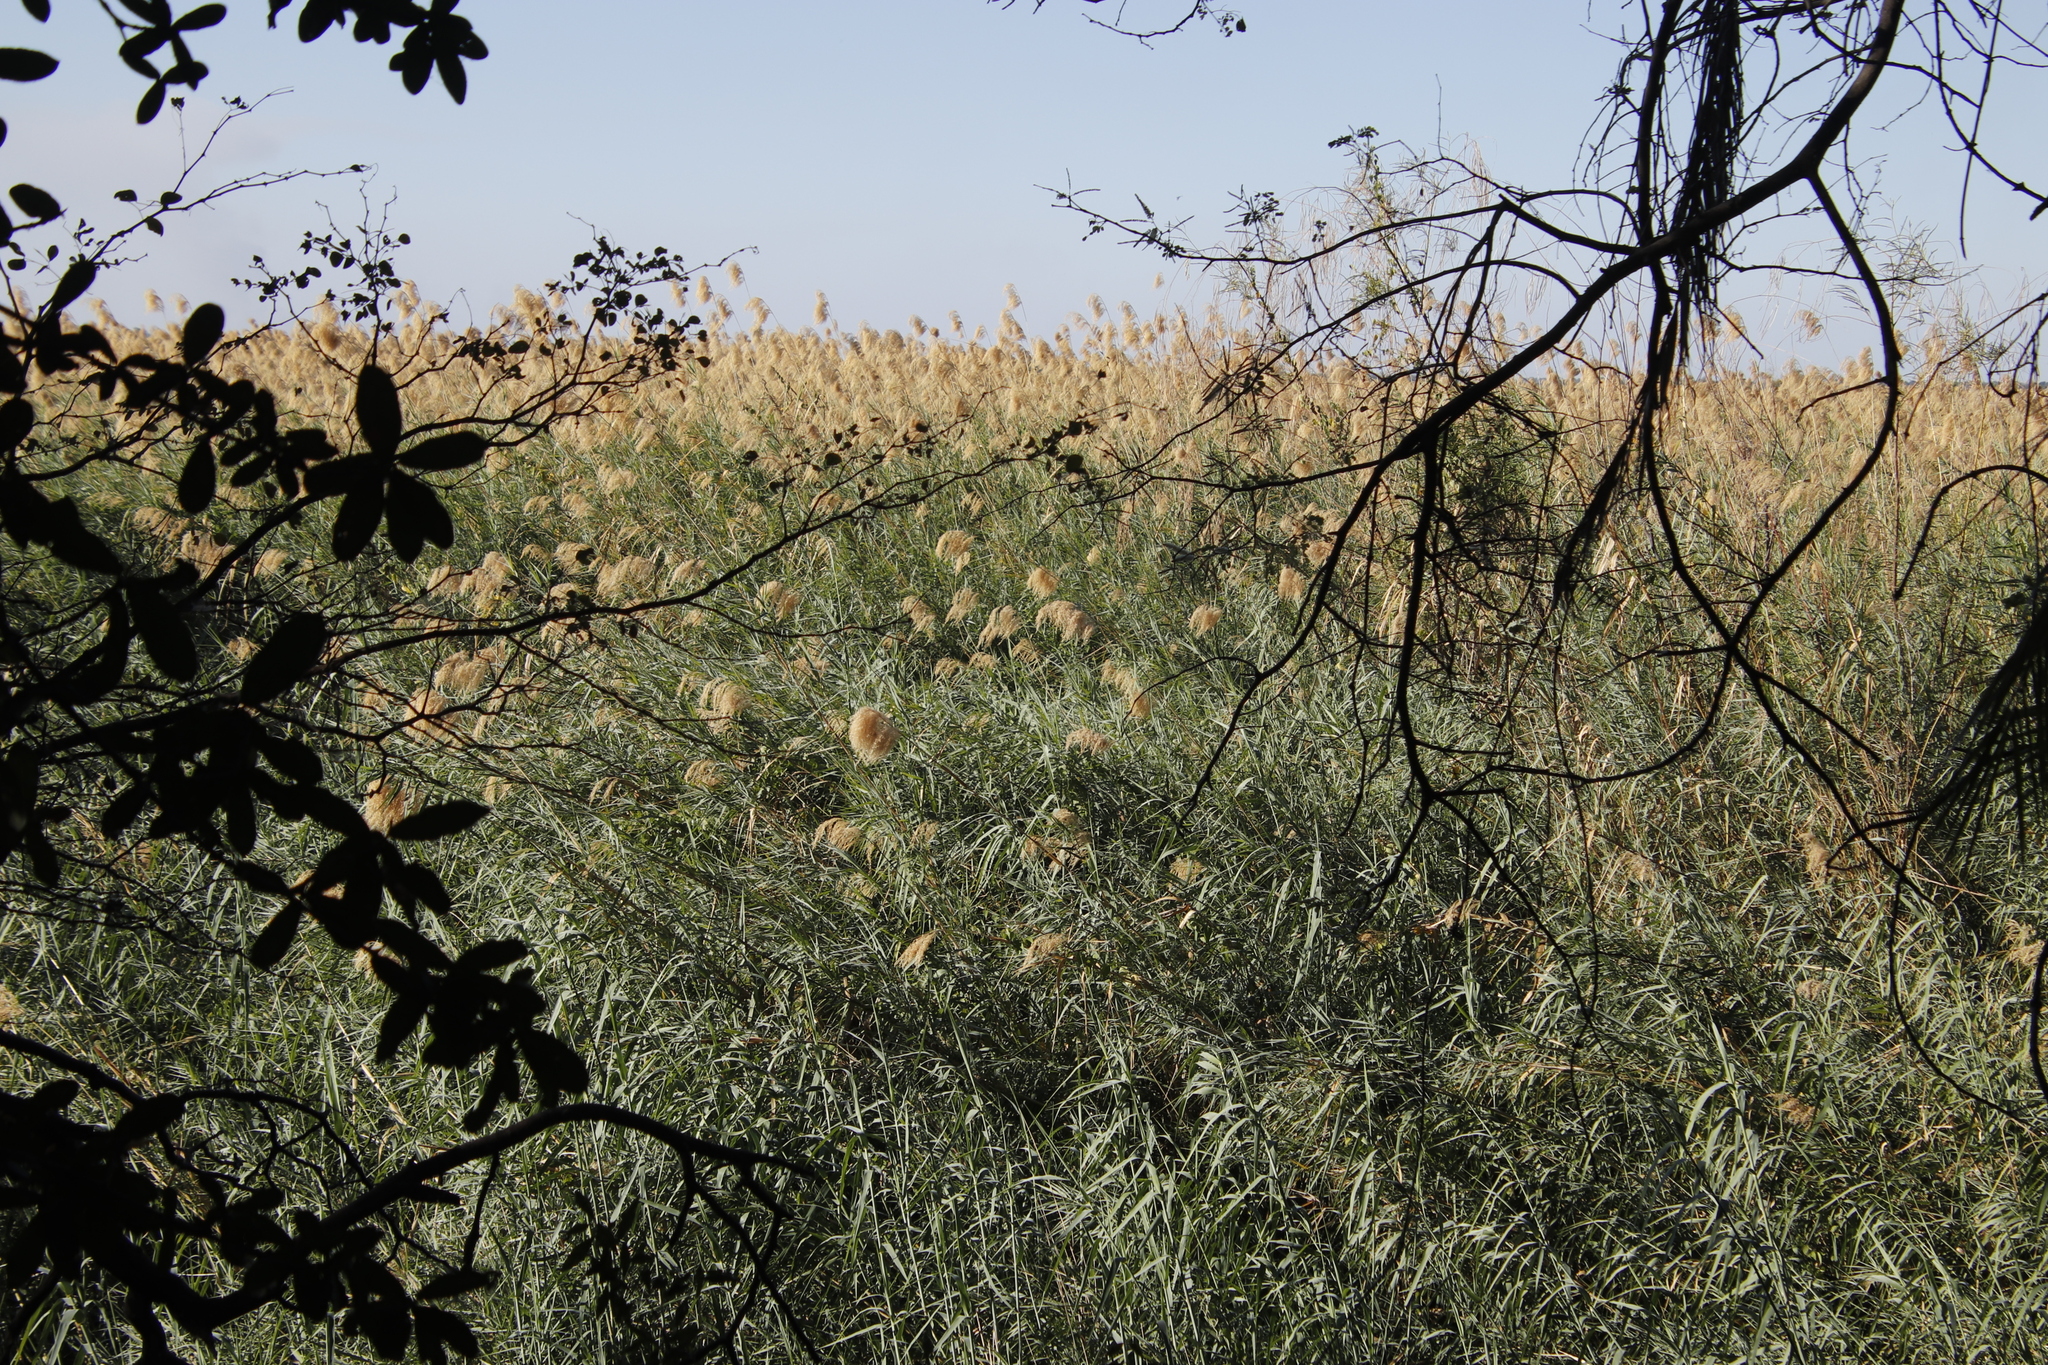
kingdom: Plantae
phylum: Tracheophyta
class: Liliopsida
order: Poales
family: Poaceae
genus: Phragmites
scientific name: Phragmites australis
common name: Common reed
